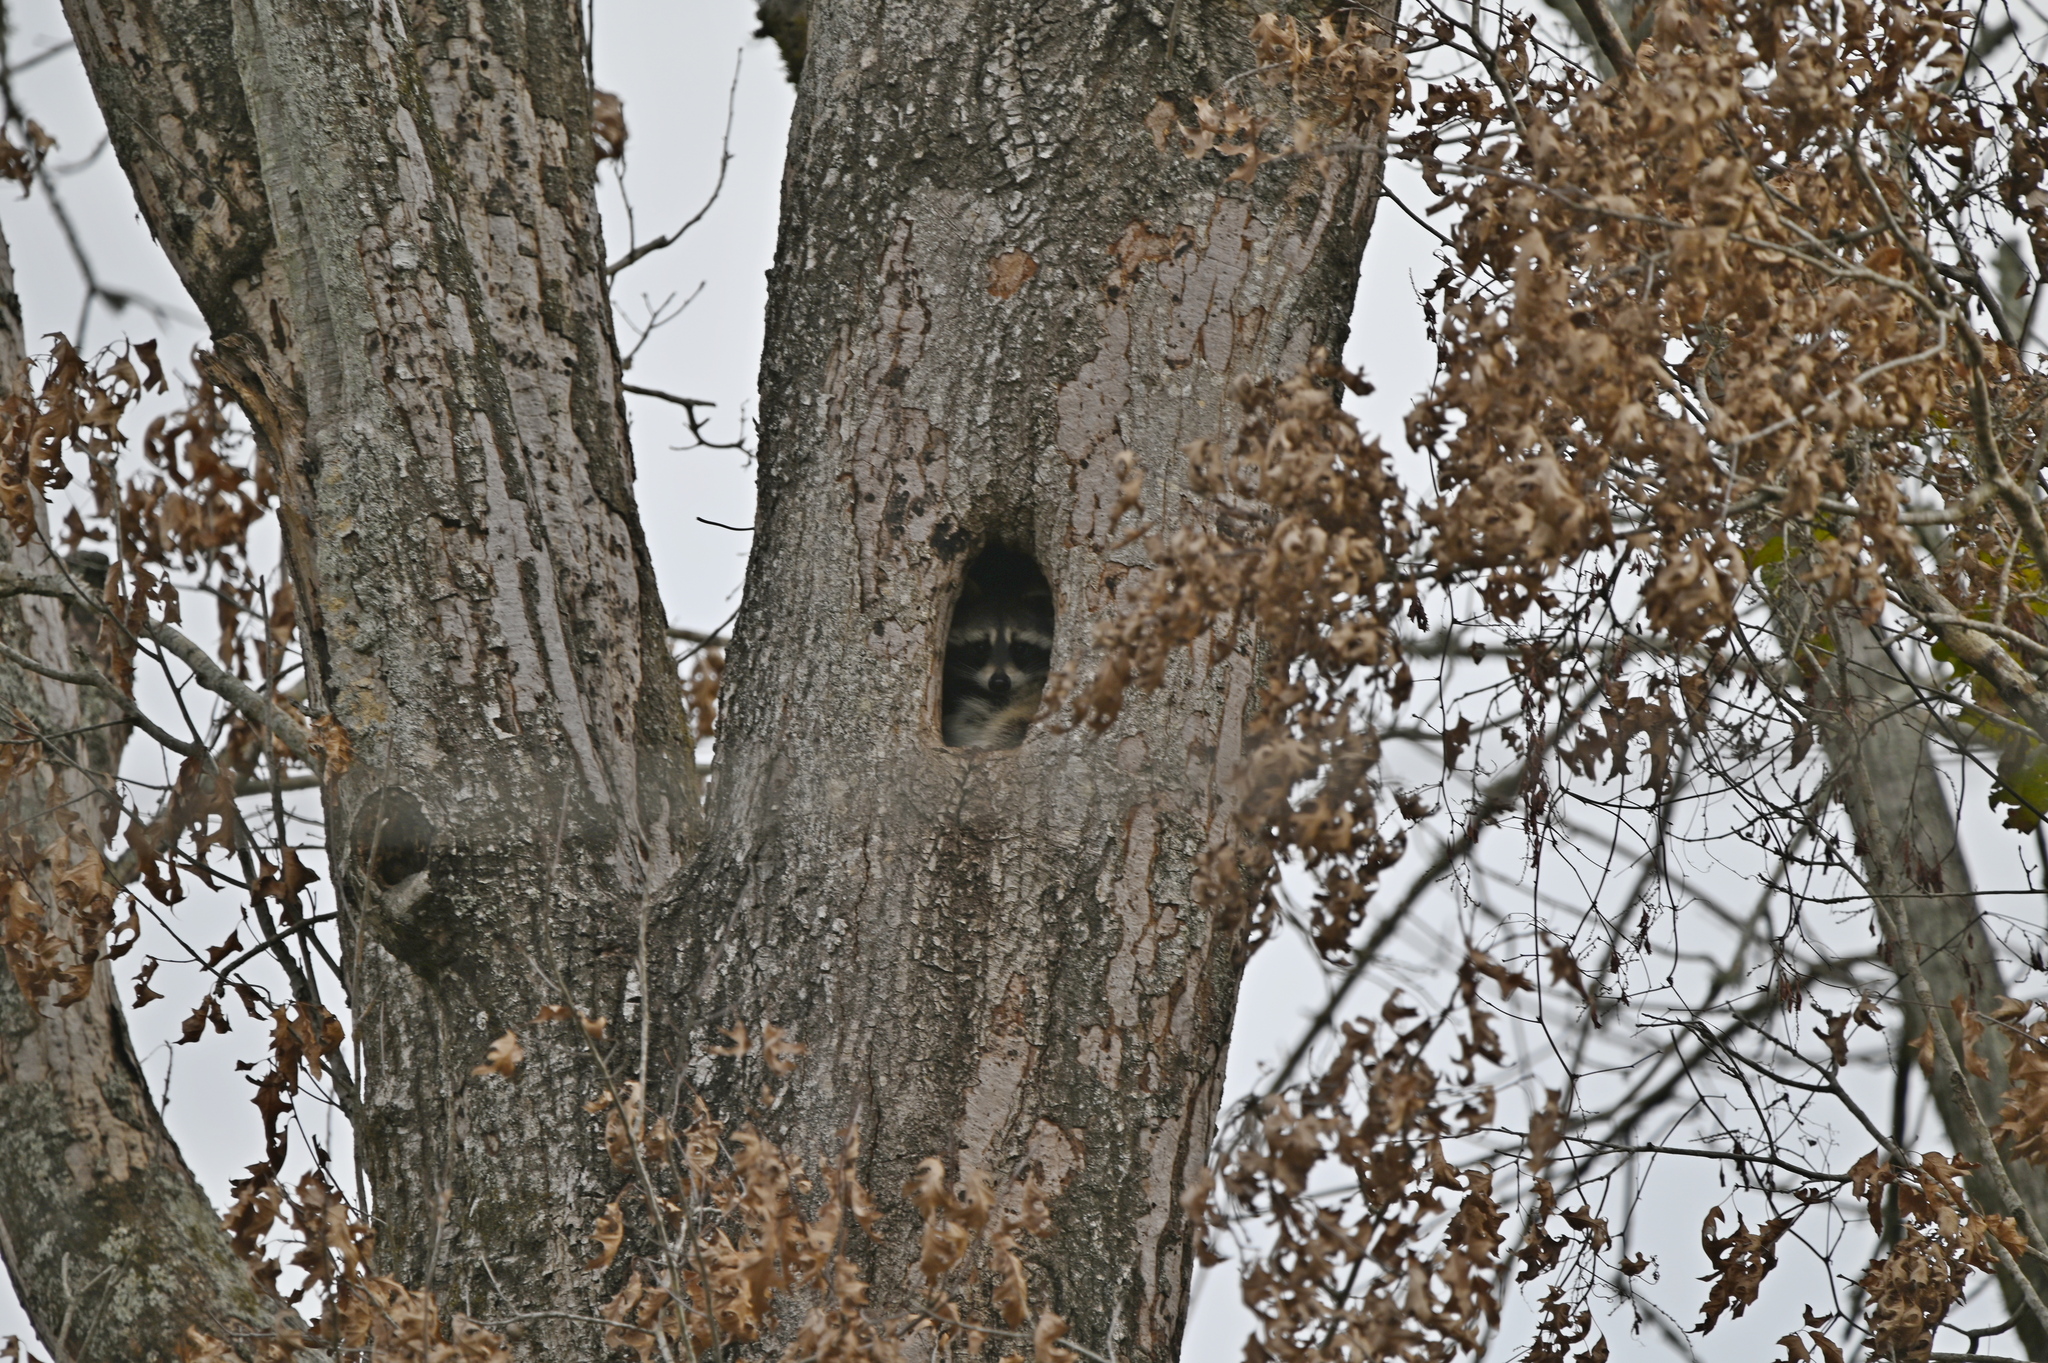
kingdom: Animalia
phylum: Chordata
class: Mammalia
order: Carnivora
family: Procyonidae
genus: Procyon
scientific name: Procyon lotor
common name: Raccoon
